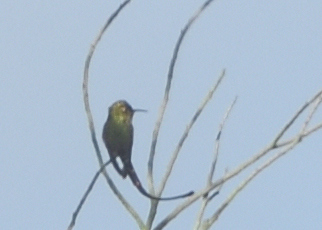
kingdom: Animalia
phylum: Chordata
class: Aves
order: Apodiformes
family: Trochilidae
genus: Lesbia
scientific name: Lesbia victoriae
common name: Black-tailed trainbearer
